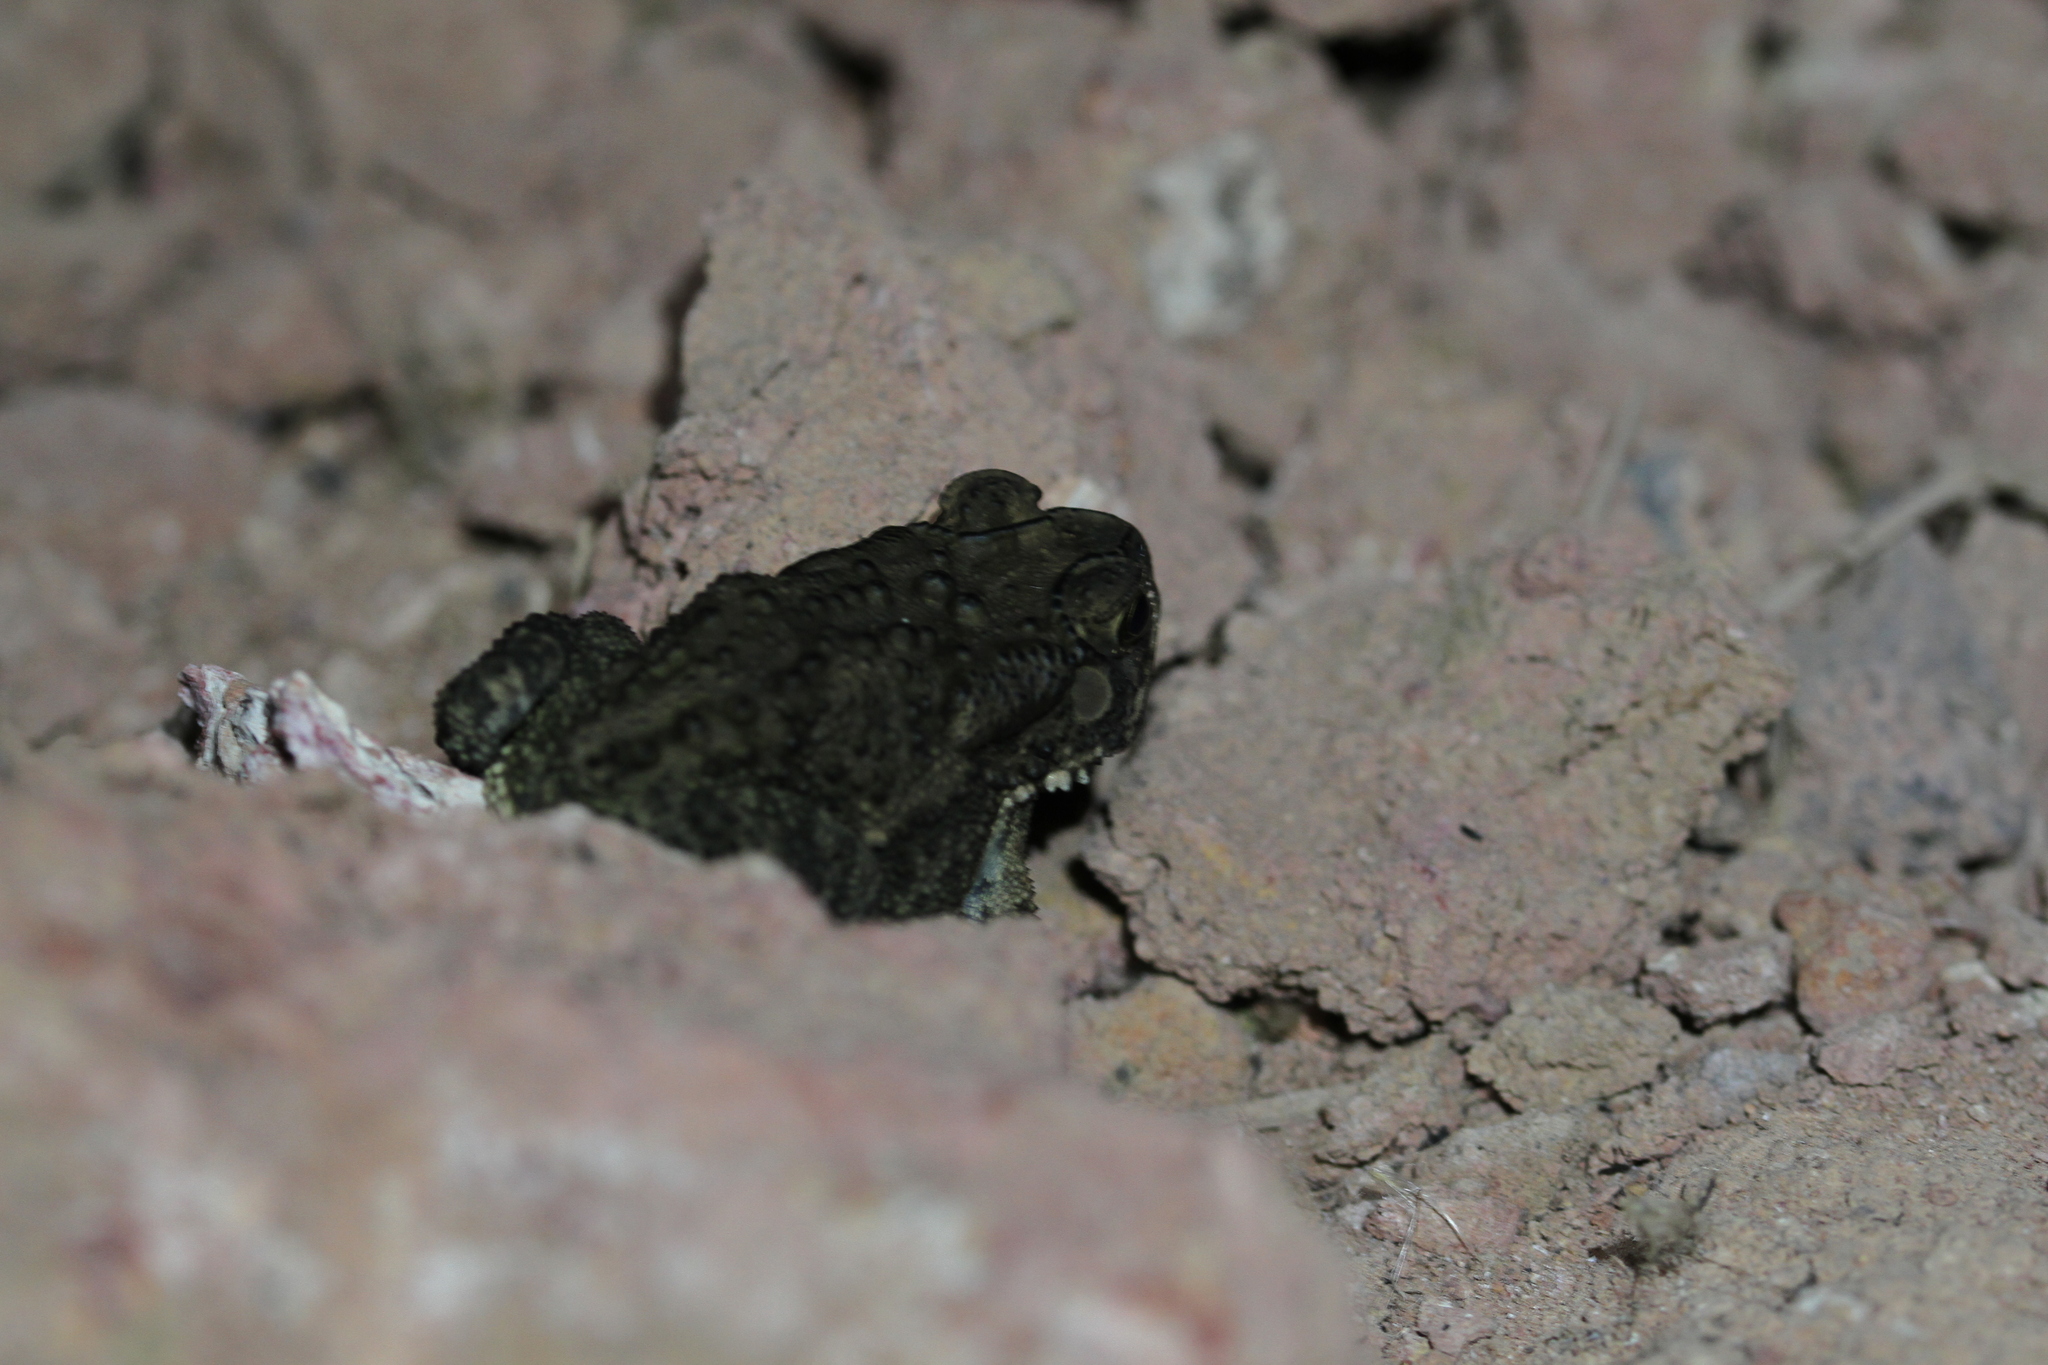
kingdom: Animalia
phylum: Chordata
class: Amphibia
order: Anura
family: Bufonidae
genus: Duttaphrynus
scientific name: Duttaphrynus melanostictus
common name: Common sunda toad
